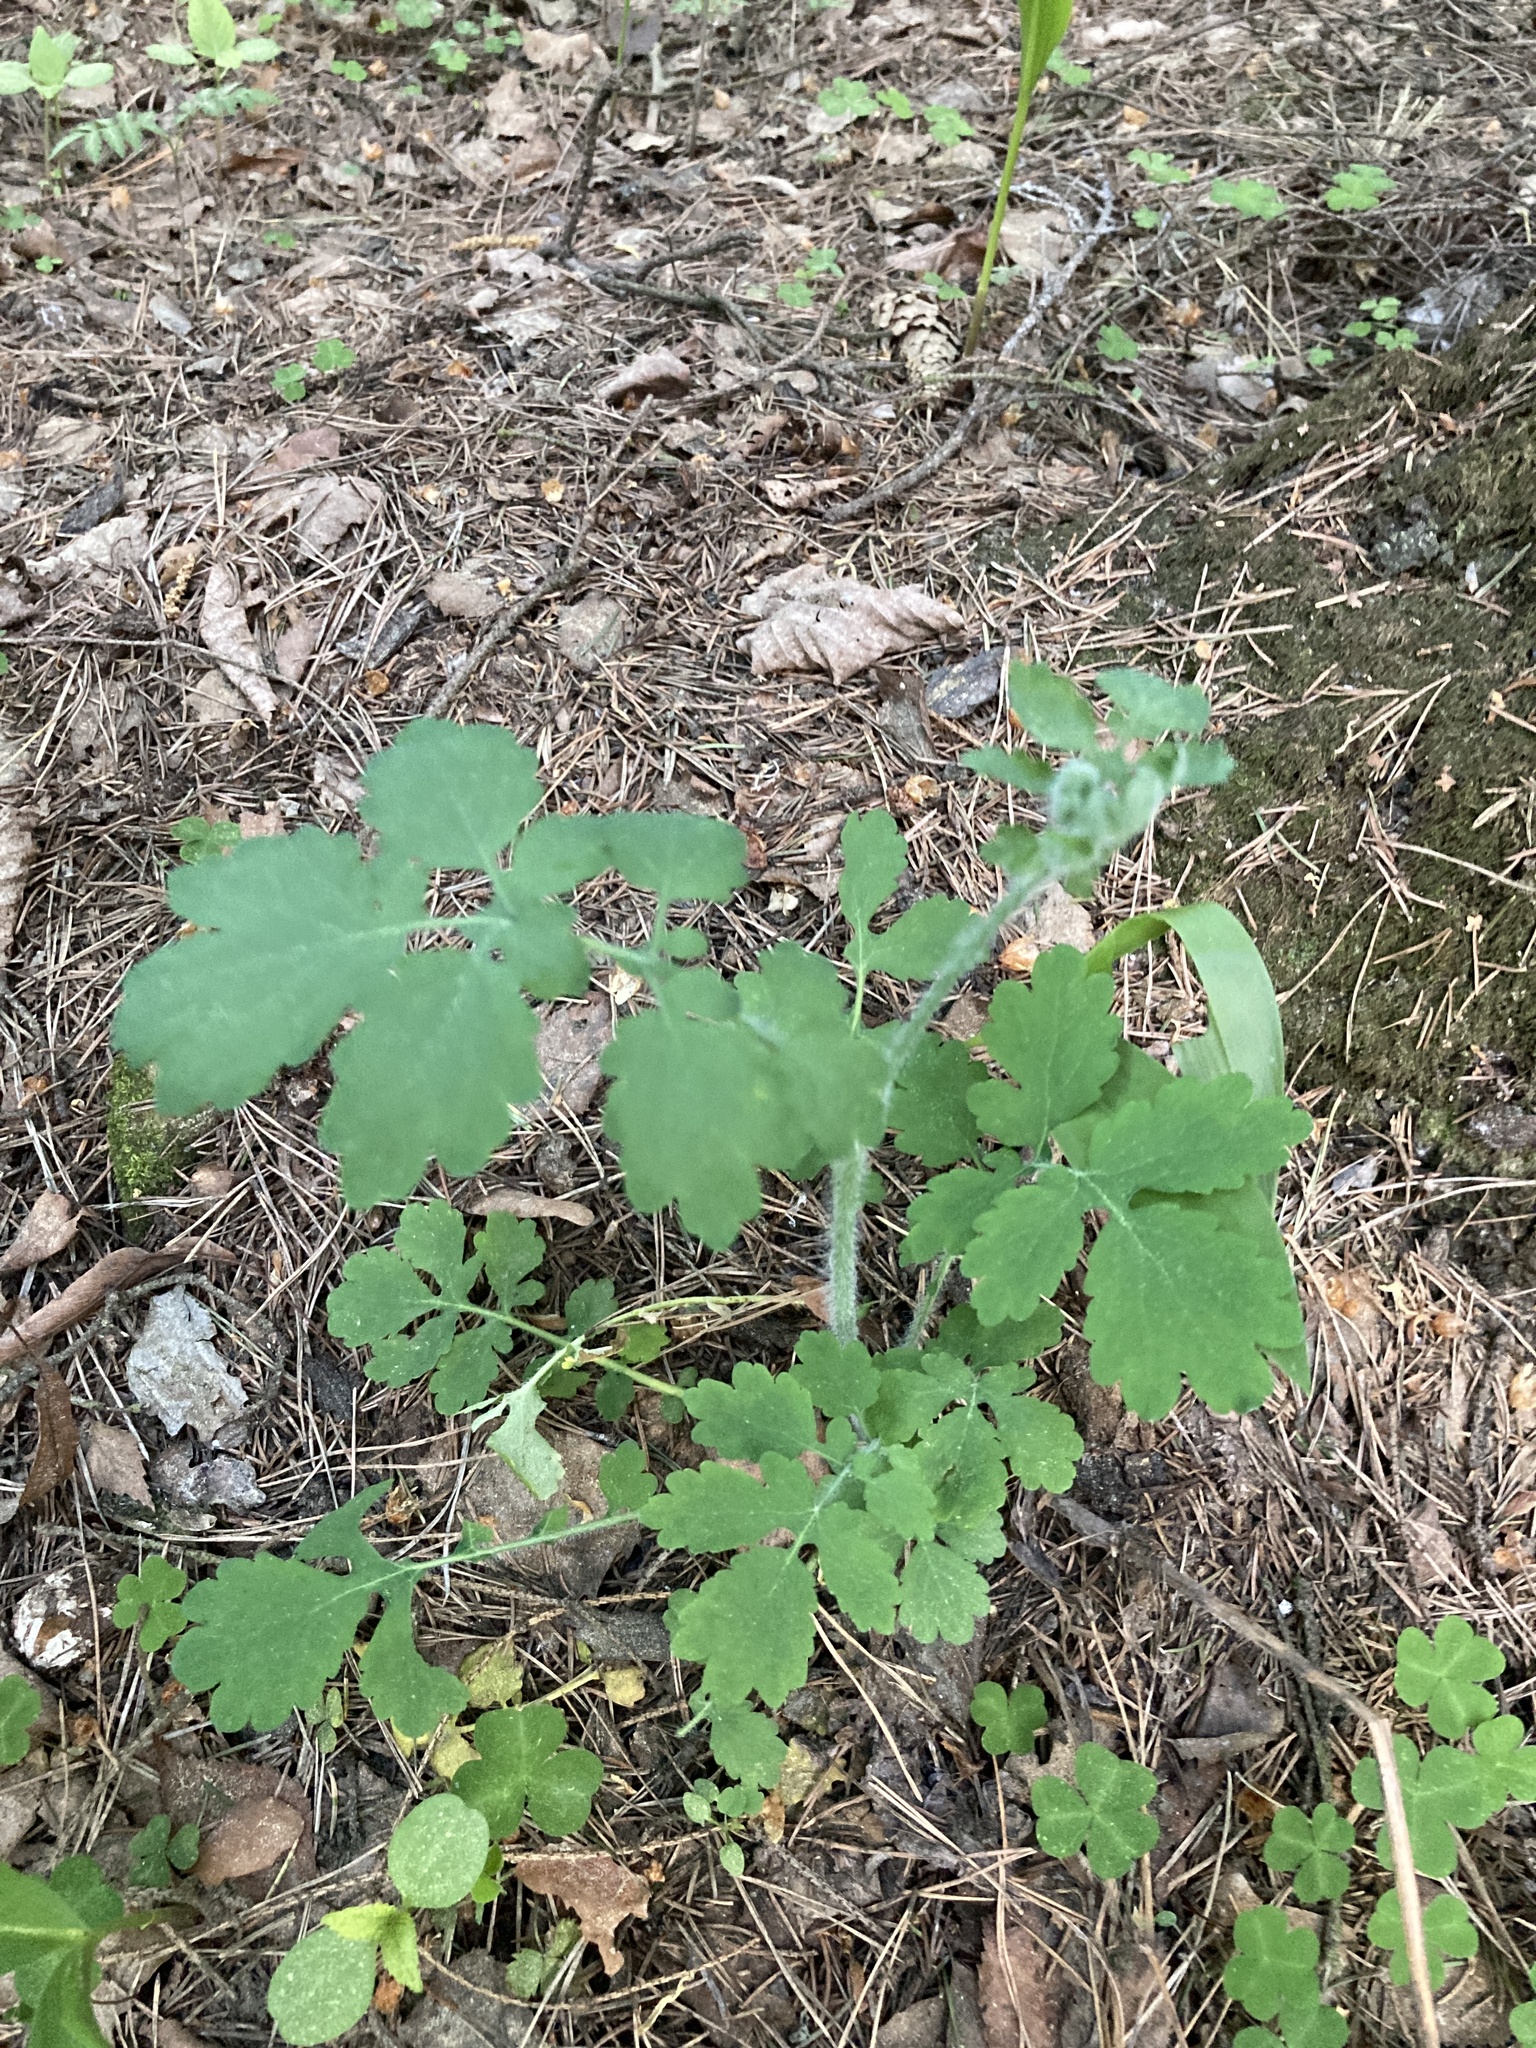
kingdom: Plantae
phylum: Tracheophyta
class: Magnoliopsida
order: Ranunculales
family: Papaveraceae
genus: Chelidonium
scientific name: Chelidonium majus
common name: Greater celandine
